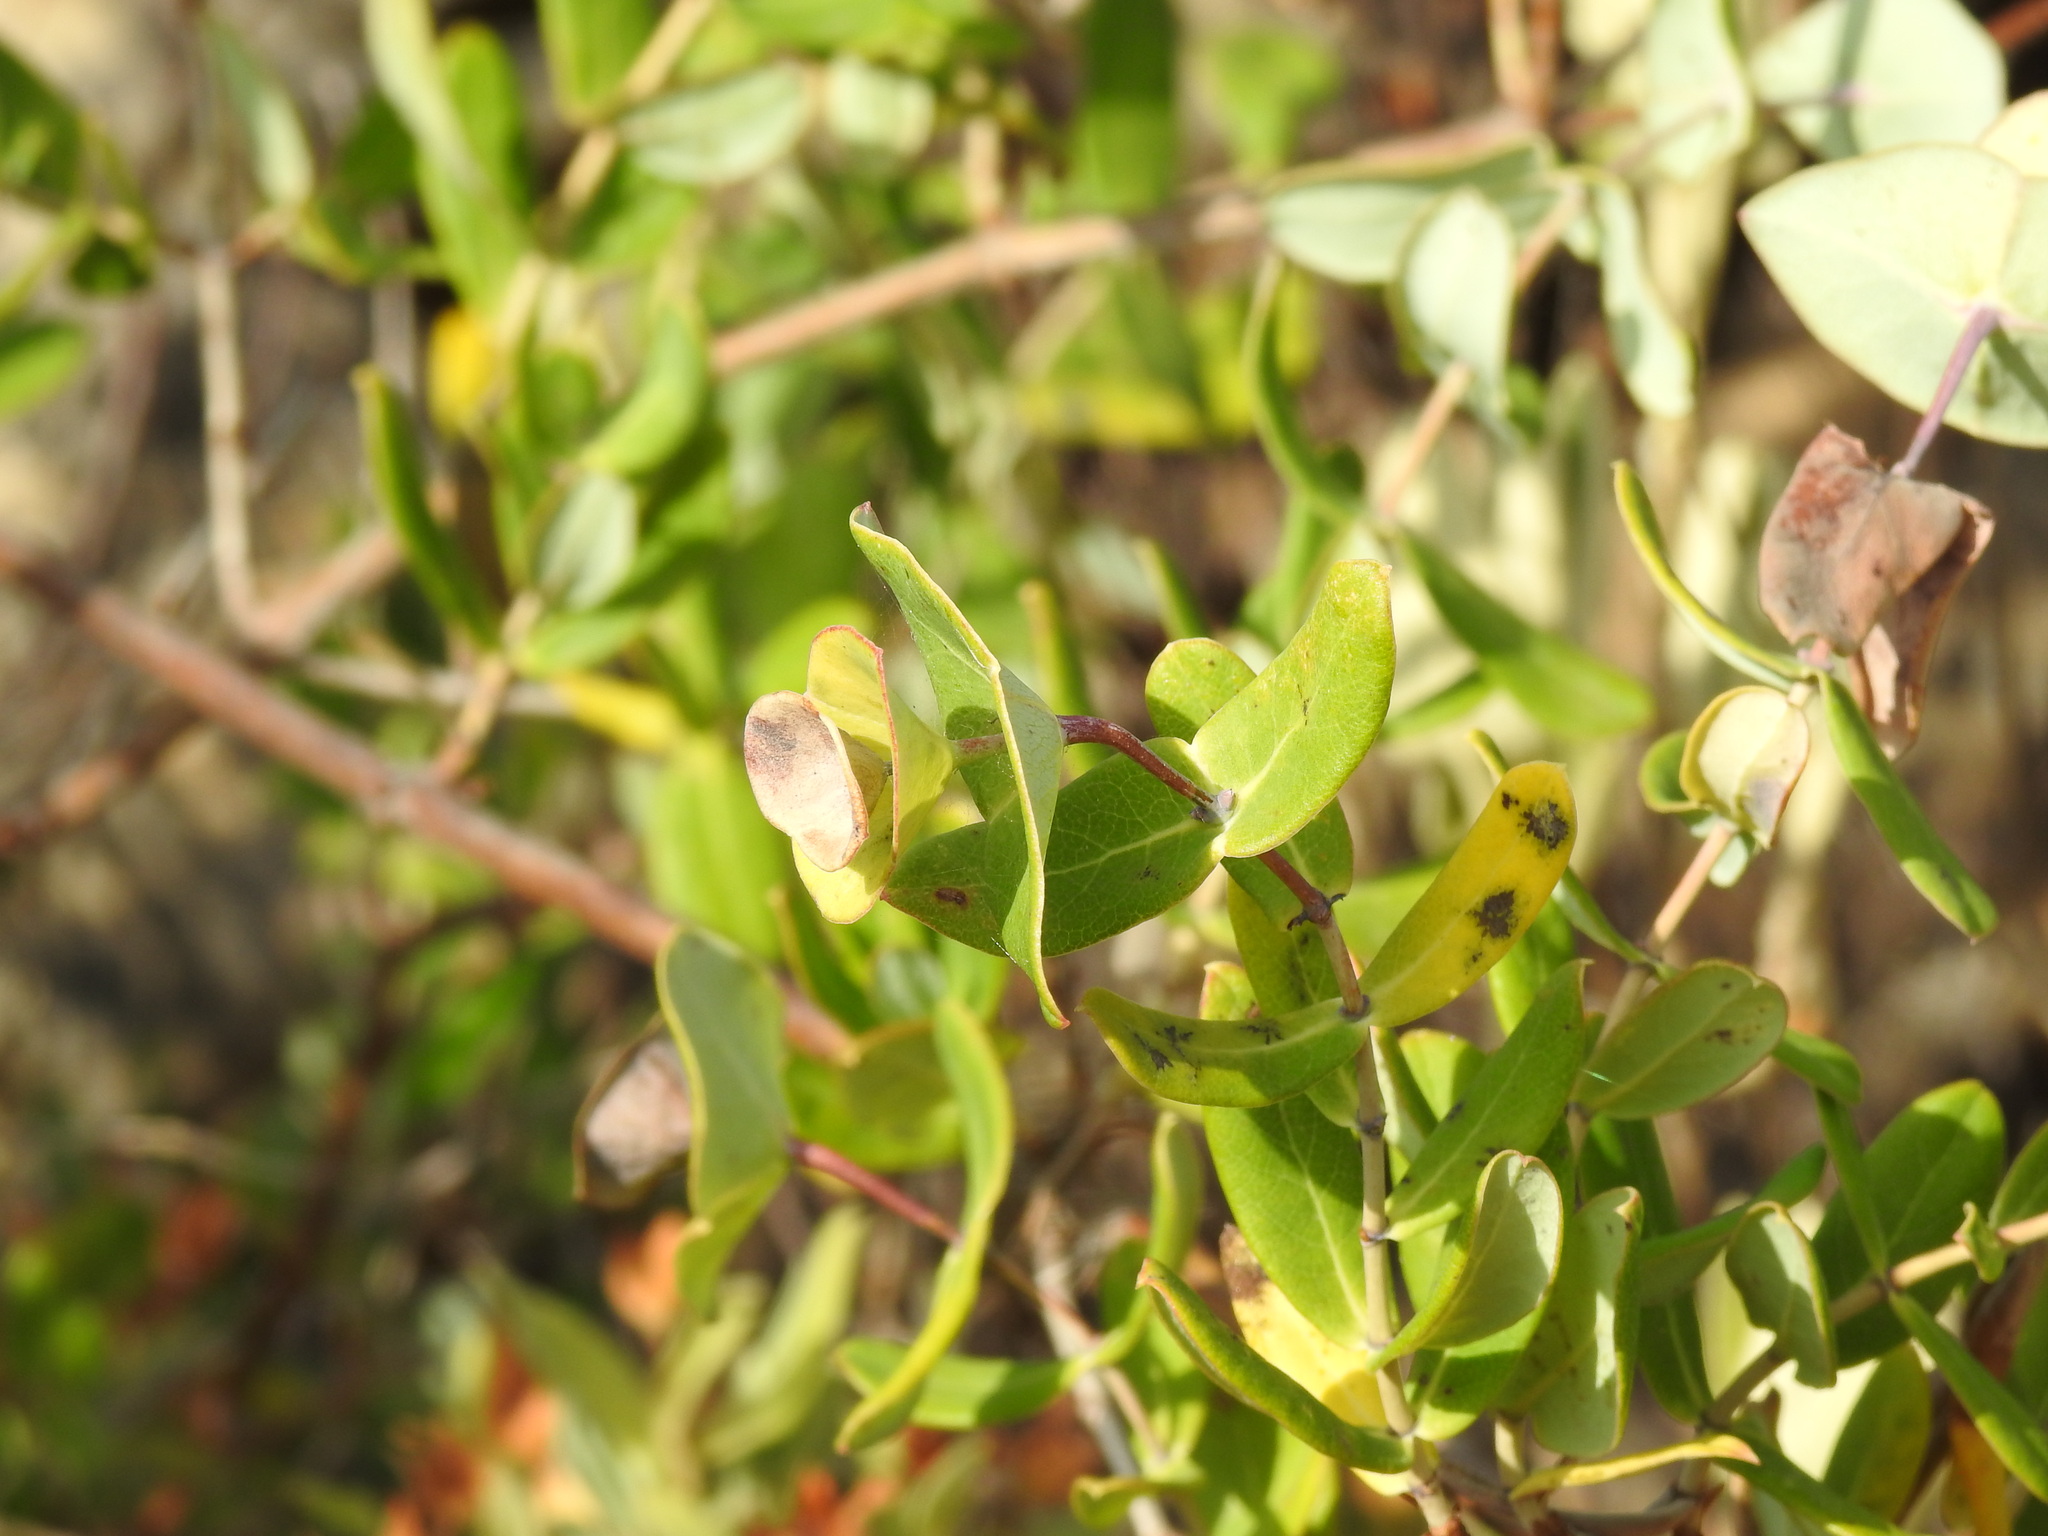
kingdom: Plantae
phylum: Tracheophyta
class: Magnoliopsida
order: Dipsacales
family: Caprifoliaceae
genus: Lonicera
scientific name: Lonicera implexa
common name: Minorca honeysuckle
